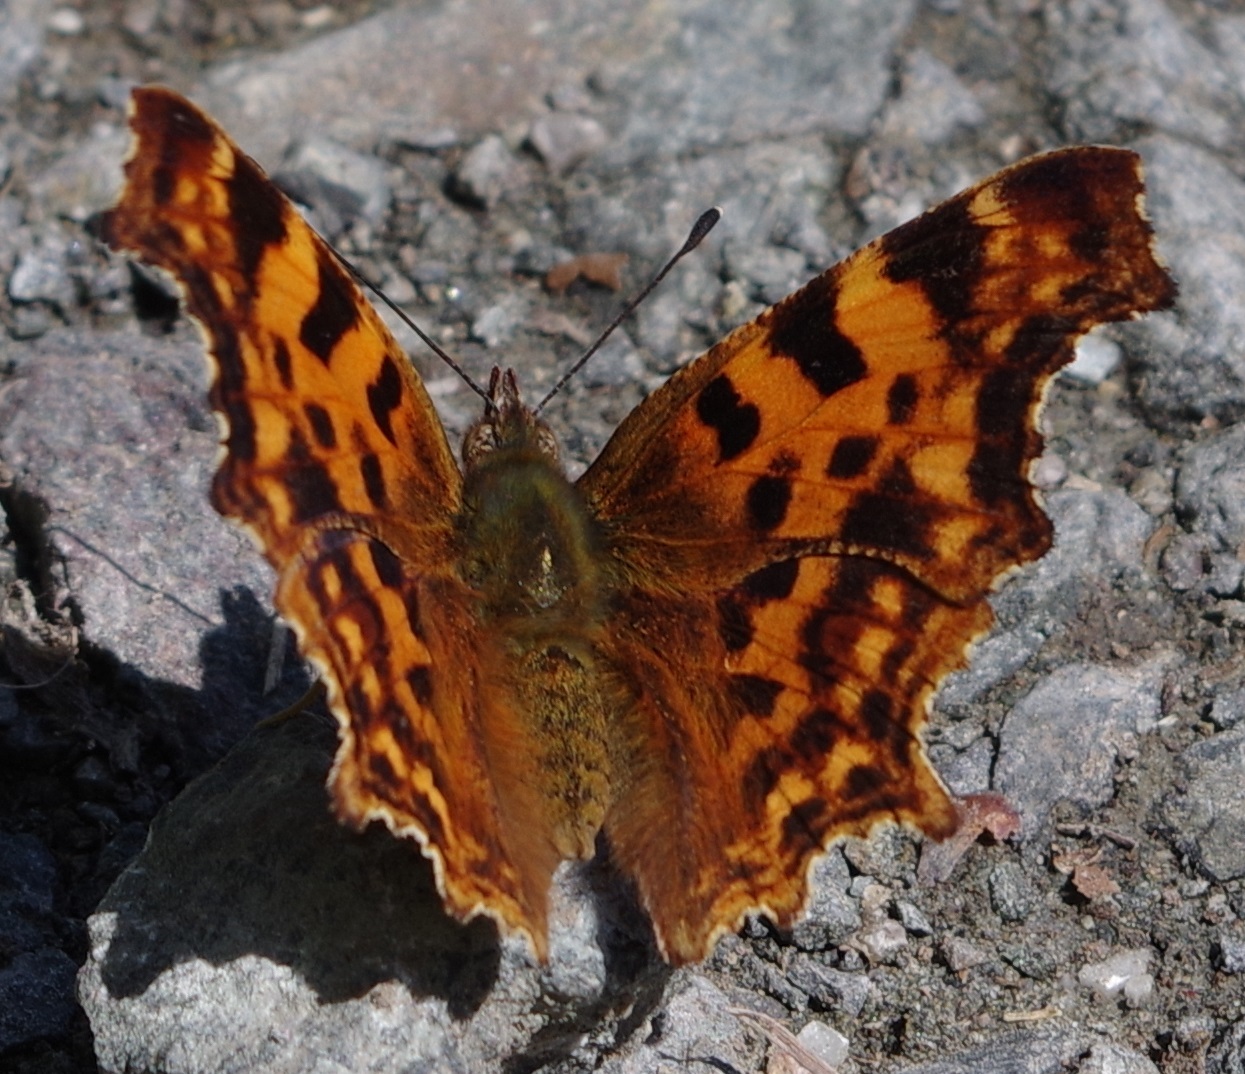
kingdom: Animalia
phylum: Arthropoda
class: Insecta
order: Lepidoptera
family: Nymphalidae
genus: Polygonia
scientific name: Polygonia c-album
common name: Comma
